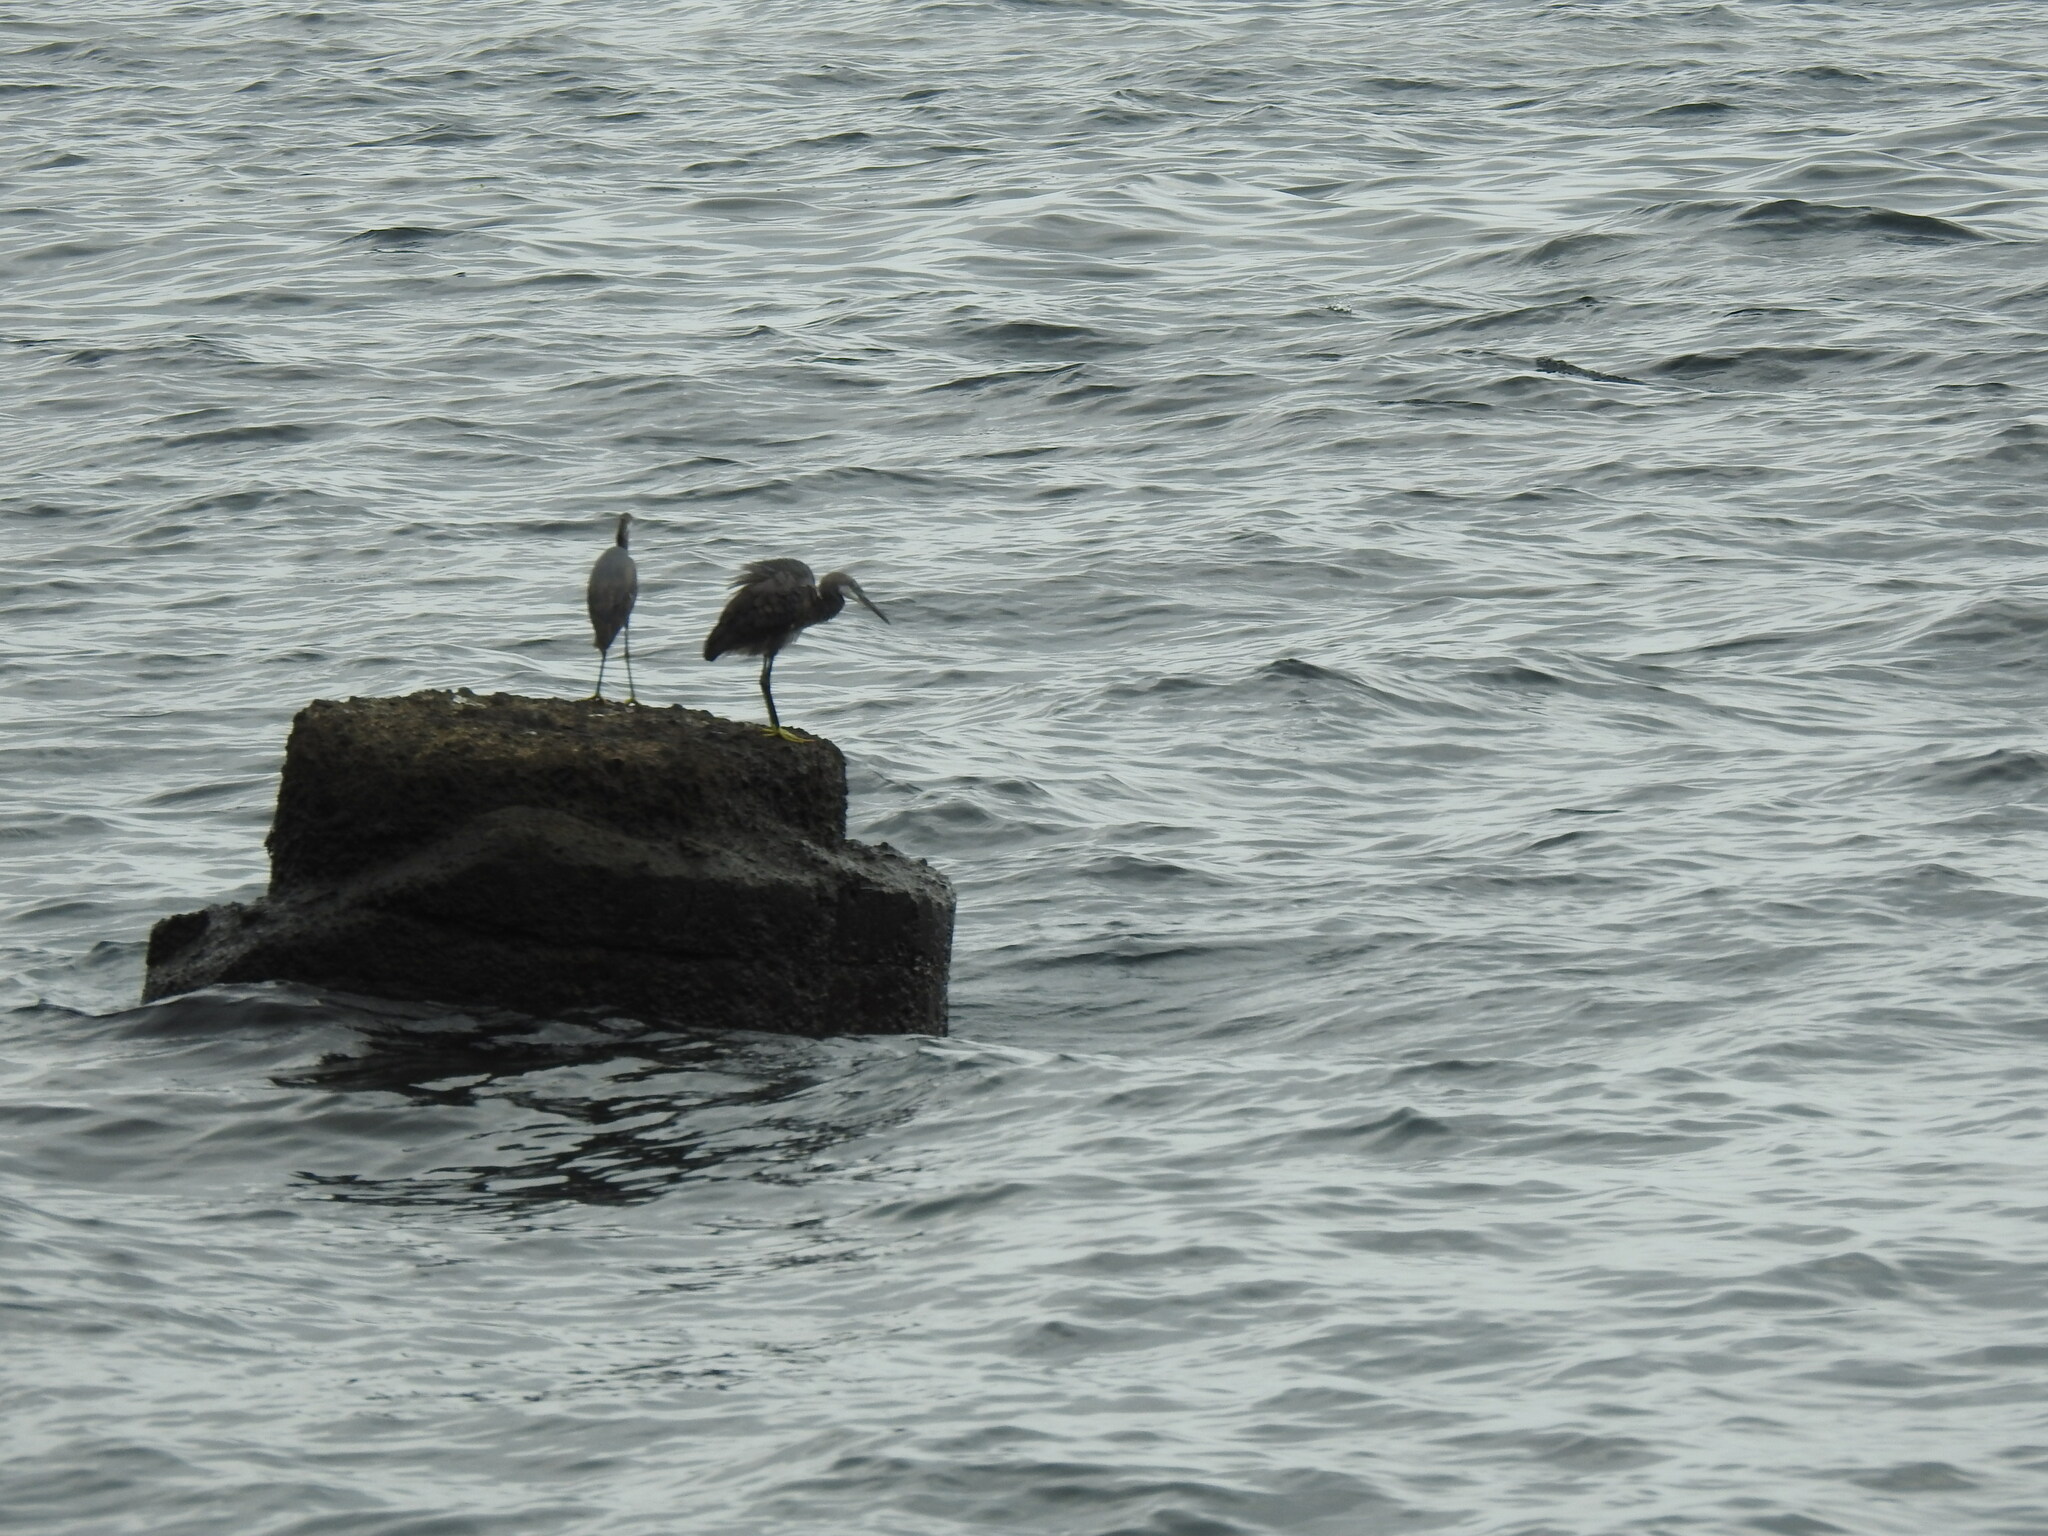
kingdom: Animalia
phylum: Chordata
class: Aves
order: Pelecaniformes
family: Ardeidae
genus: Egretta
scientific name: Egretta gularis
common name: Western reef-heron
